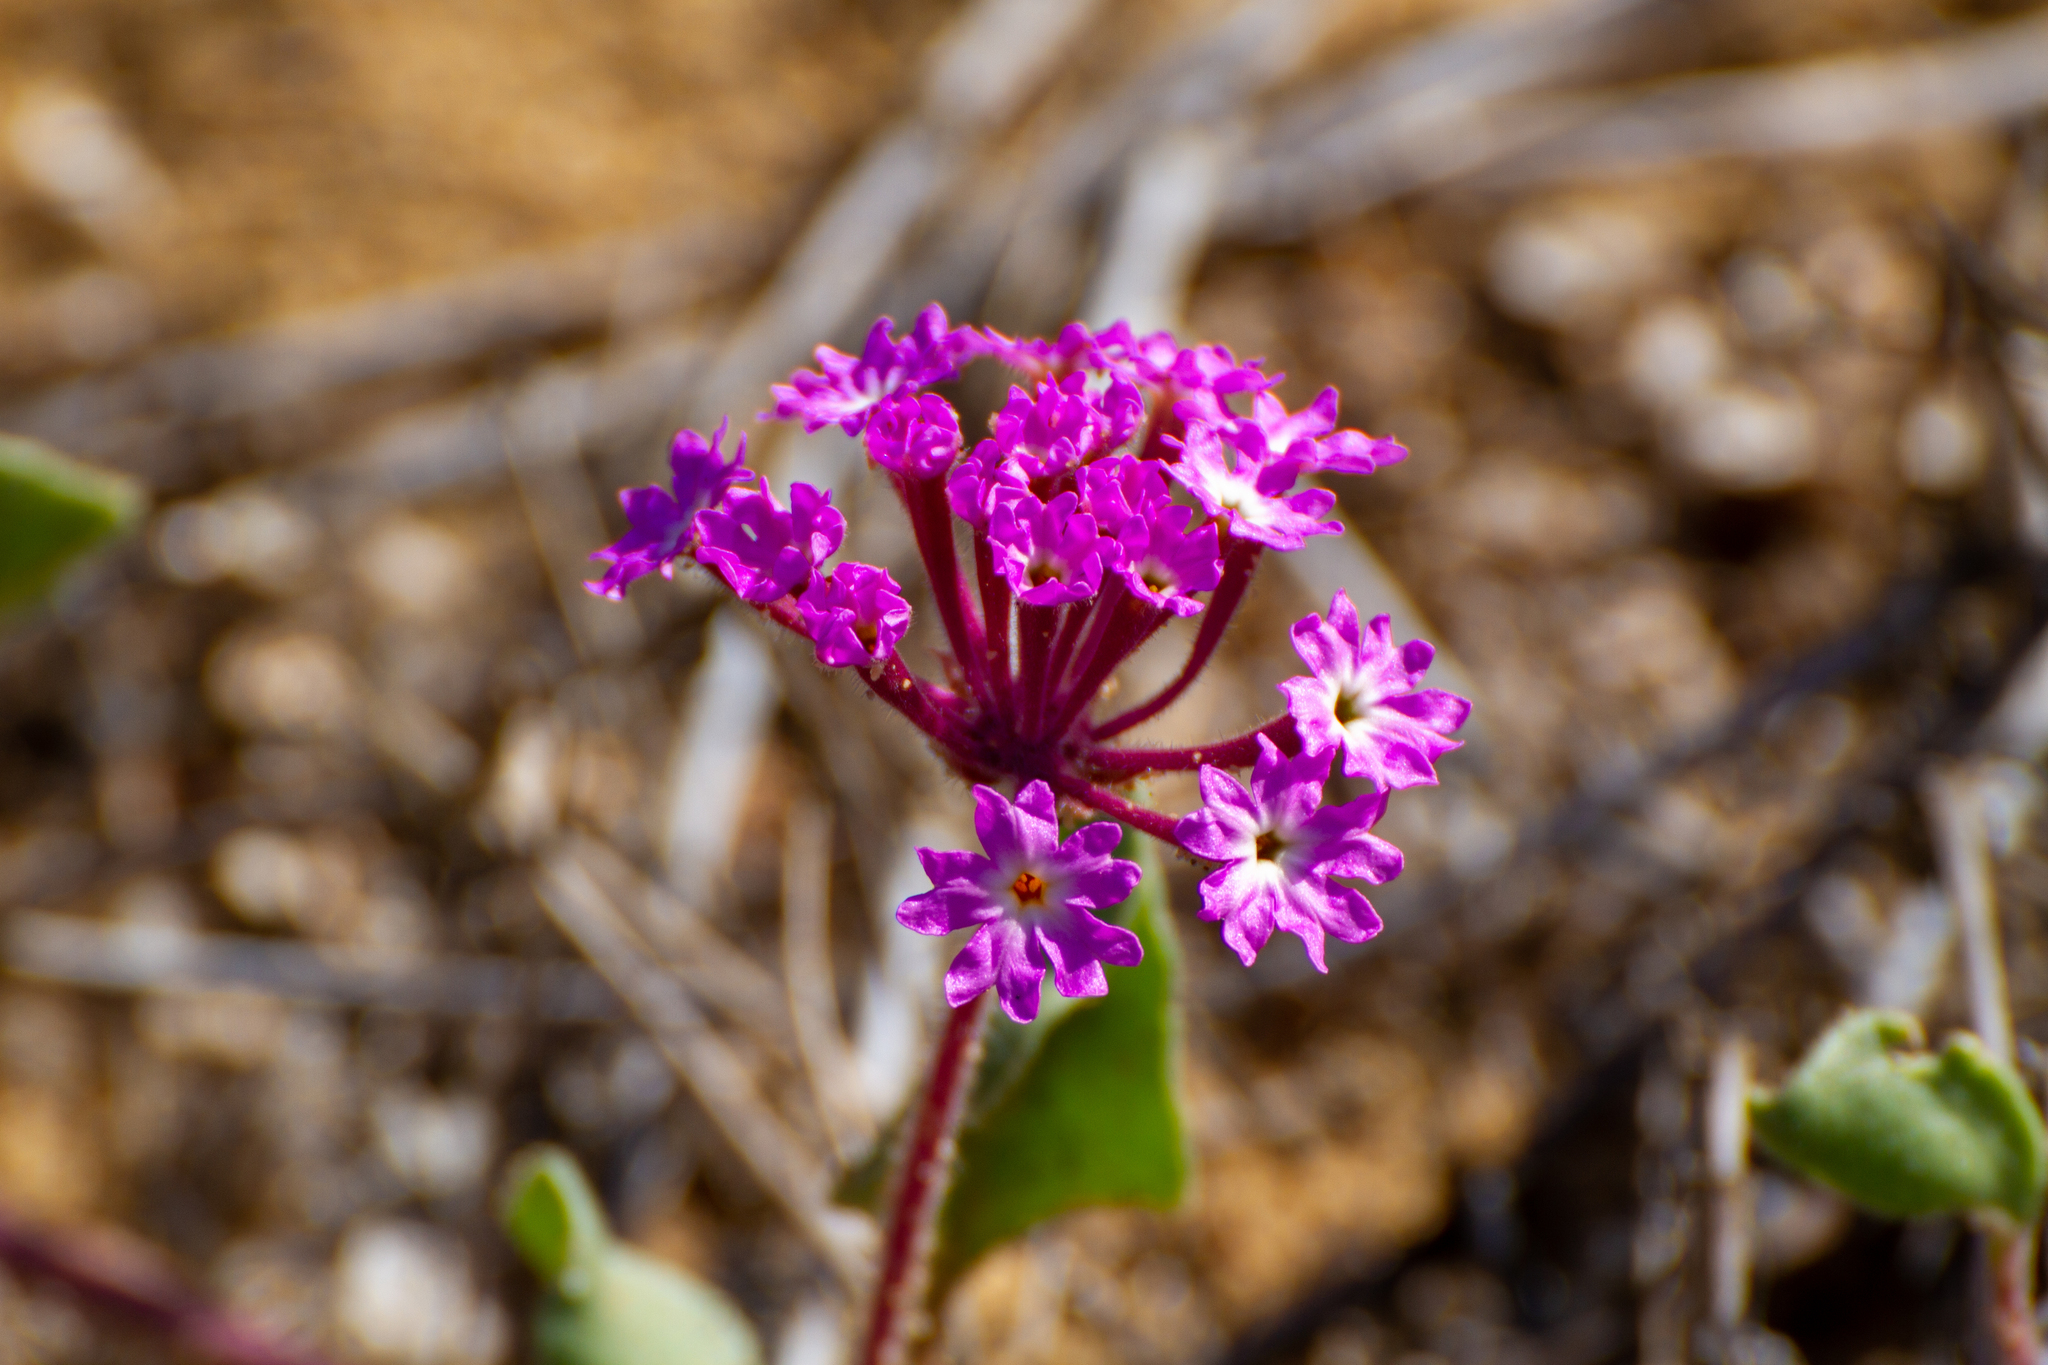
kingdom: Plantae
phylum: Tracheophyta
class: Magnoliopsida
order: Caryophyllales
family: Nyctaginaceae
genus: Abronia
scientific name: Abronia umbellata
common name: Sand-verbena
